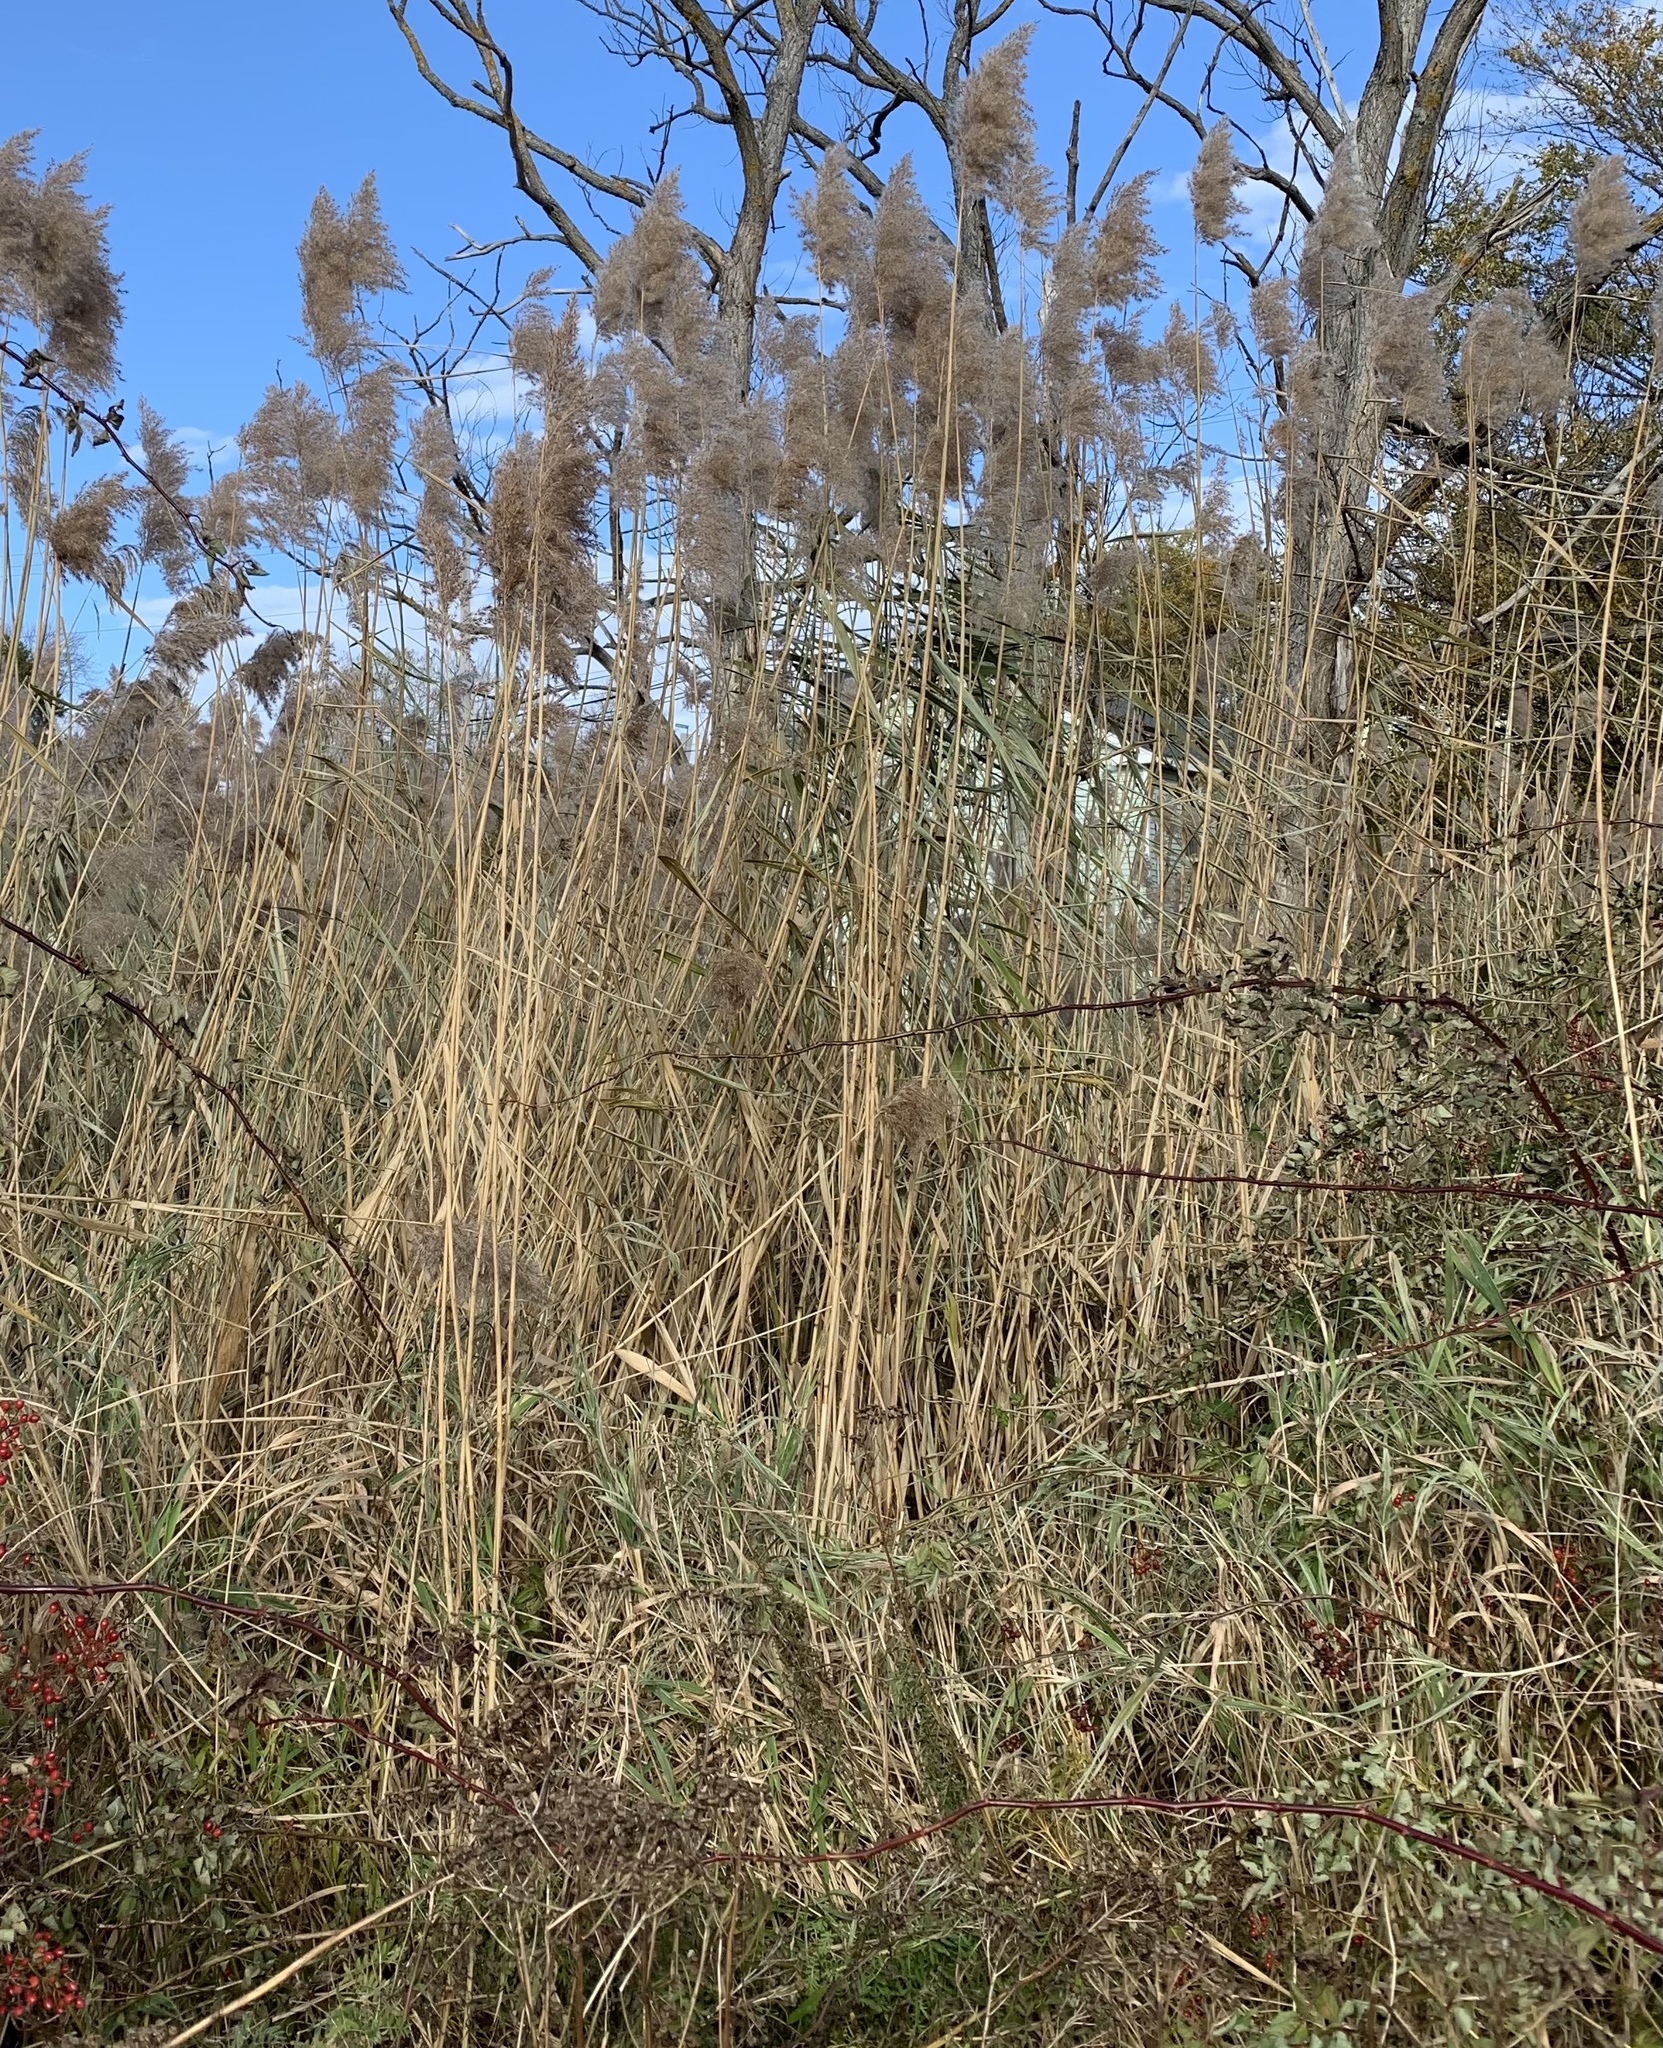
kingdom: Plantae
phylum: Tracheophyta
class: Liliopsida
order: Poales
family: Poaceae
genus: Phragmites
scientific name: Phragmites australis
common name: Common reed
